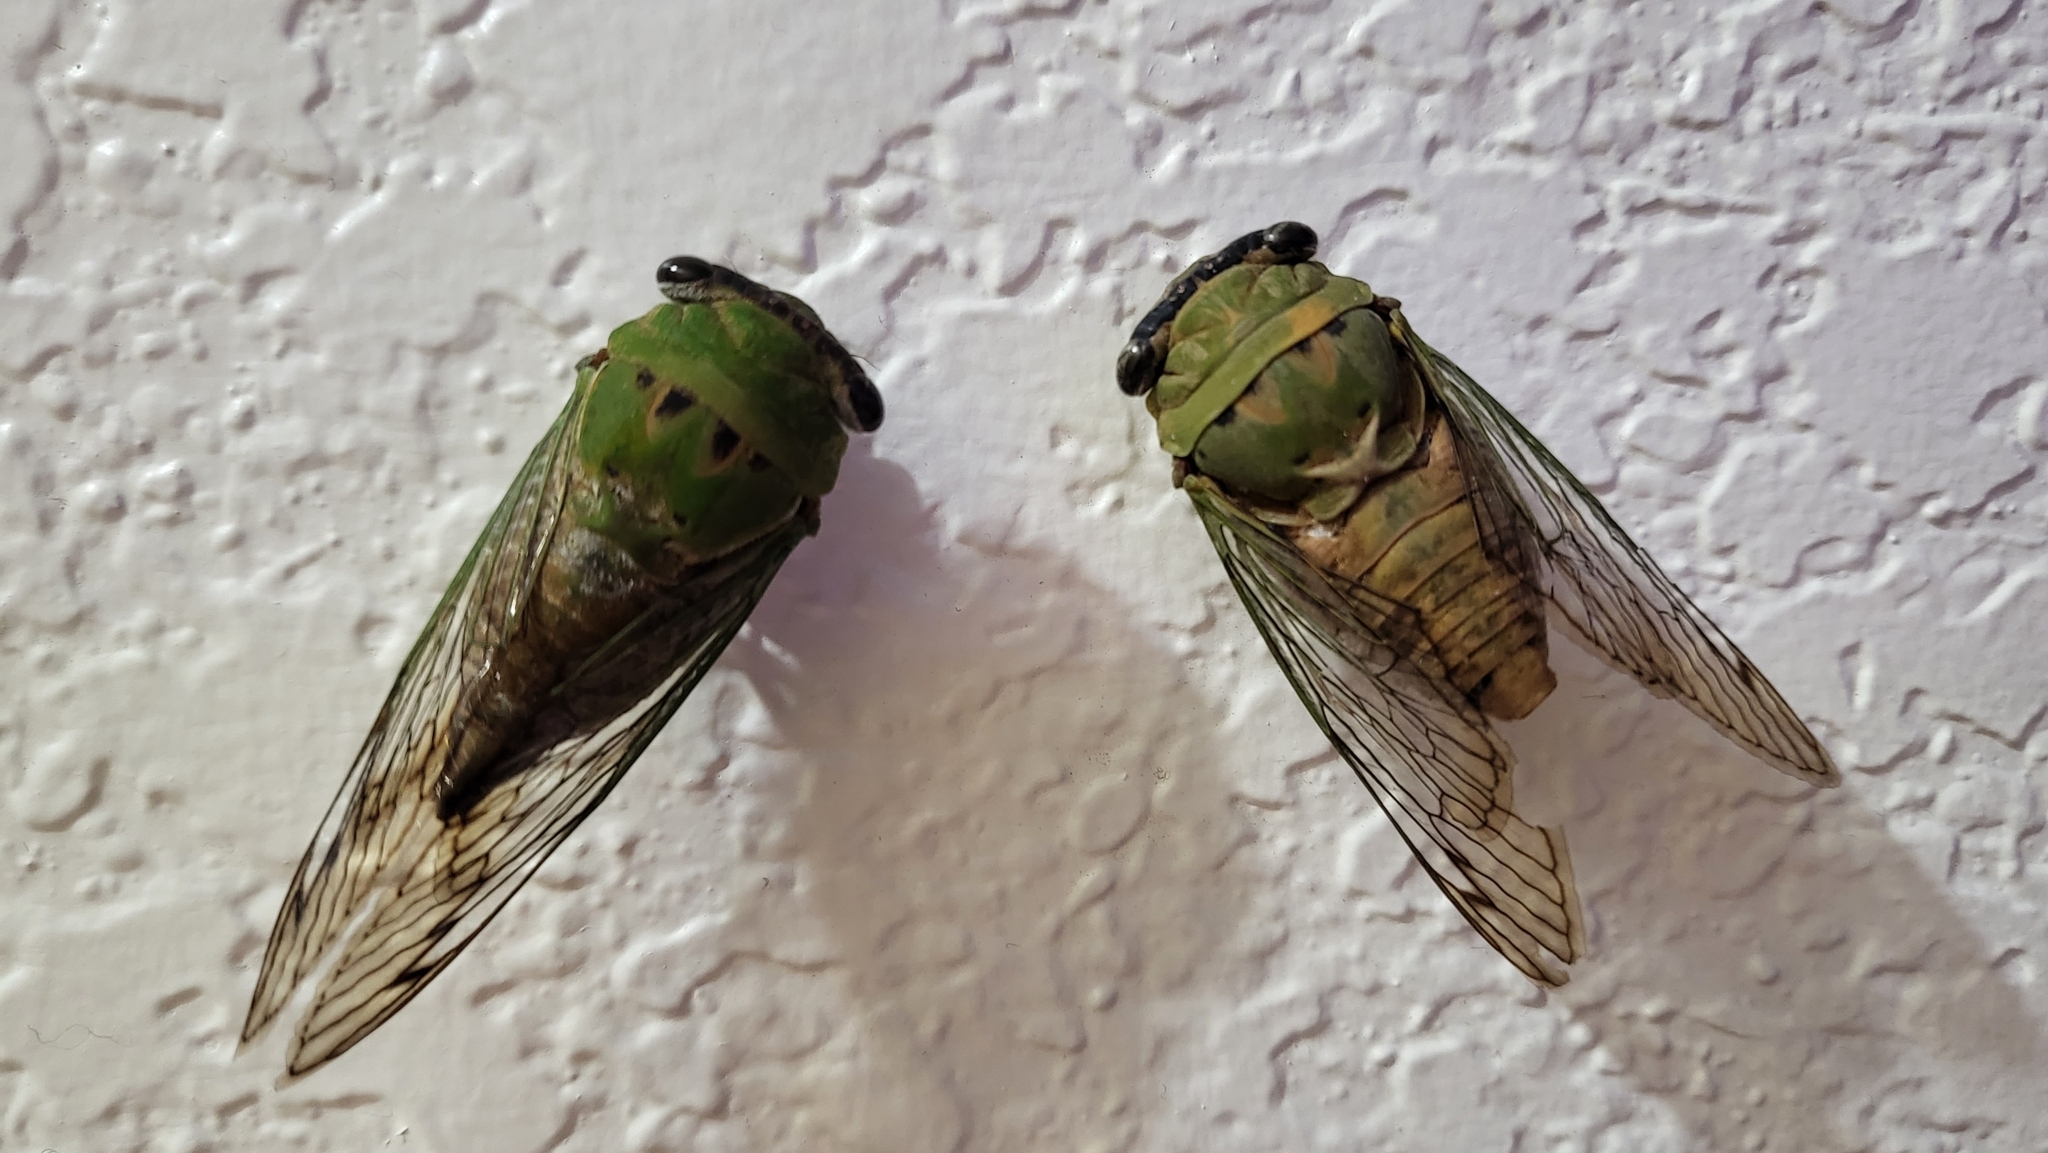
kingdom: Animalia
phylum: Arthropoda
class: Insecta
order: Hemiptera
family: Cicadidae
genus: Neotibicen
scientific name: Neotibicen superbus
